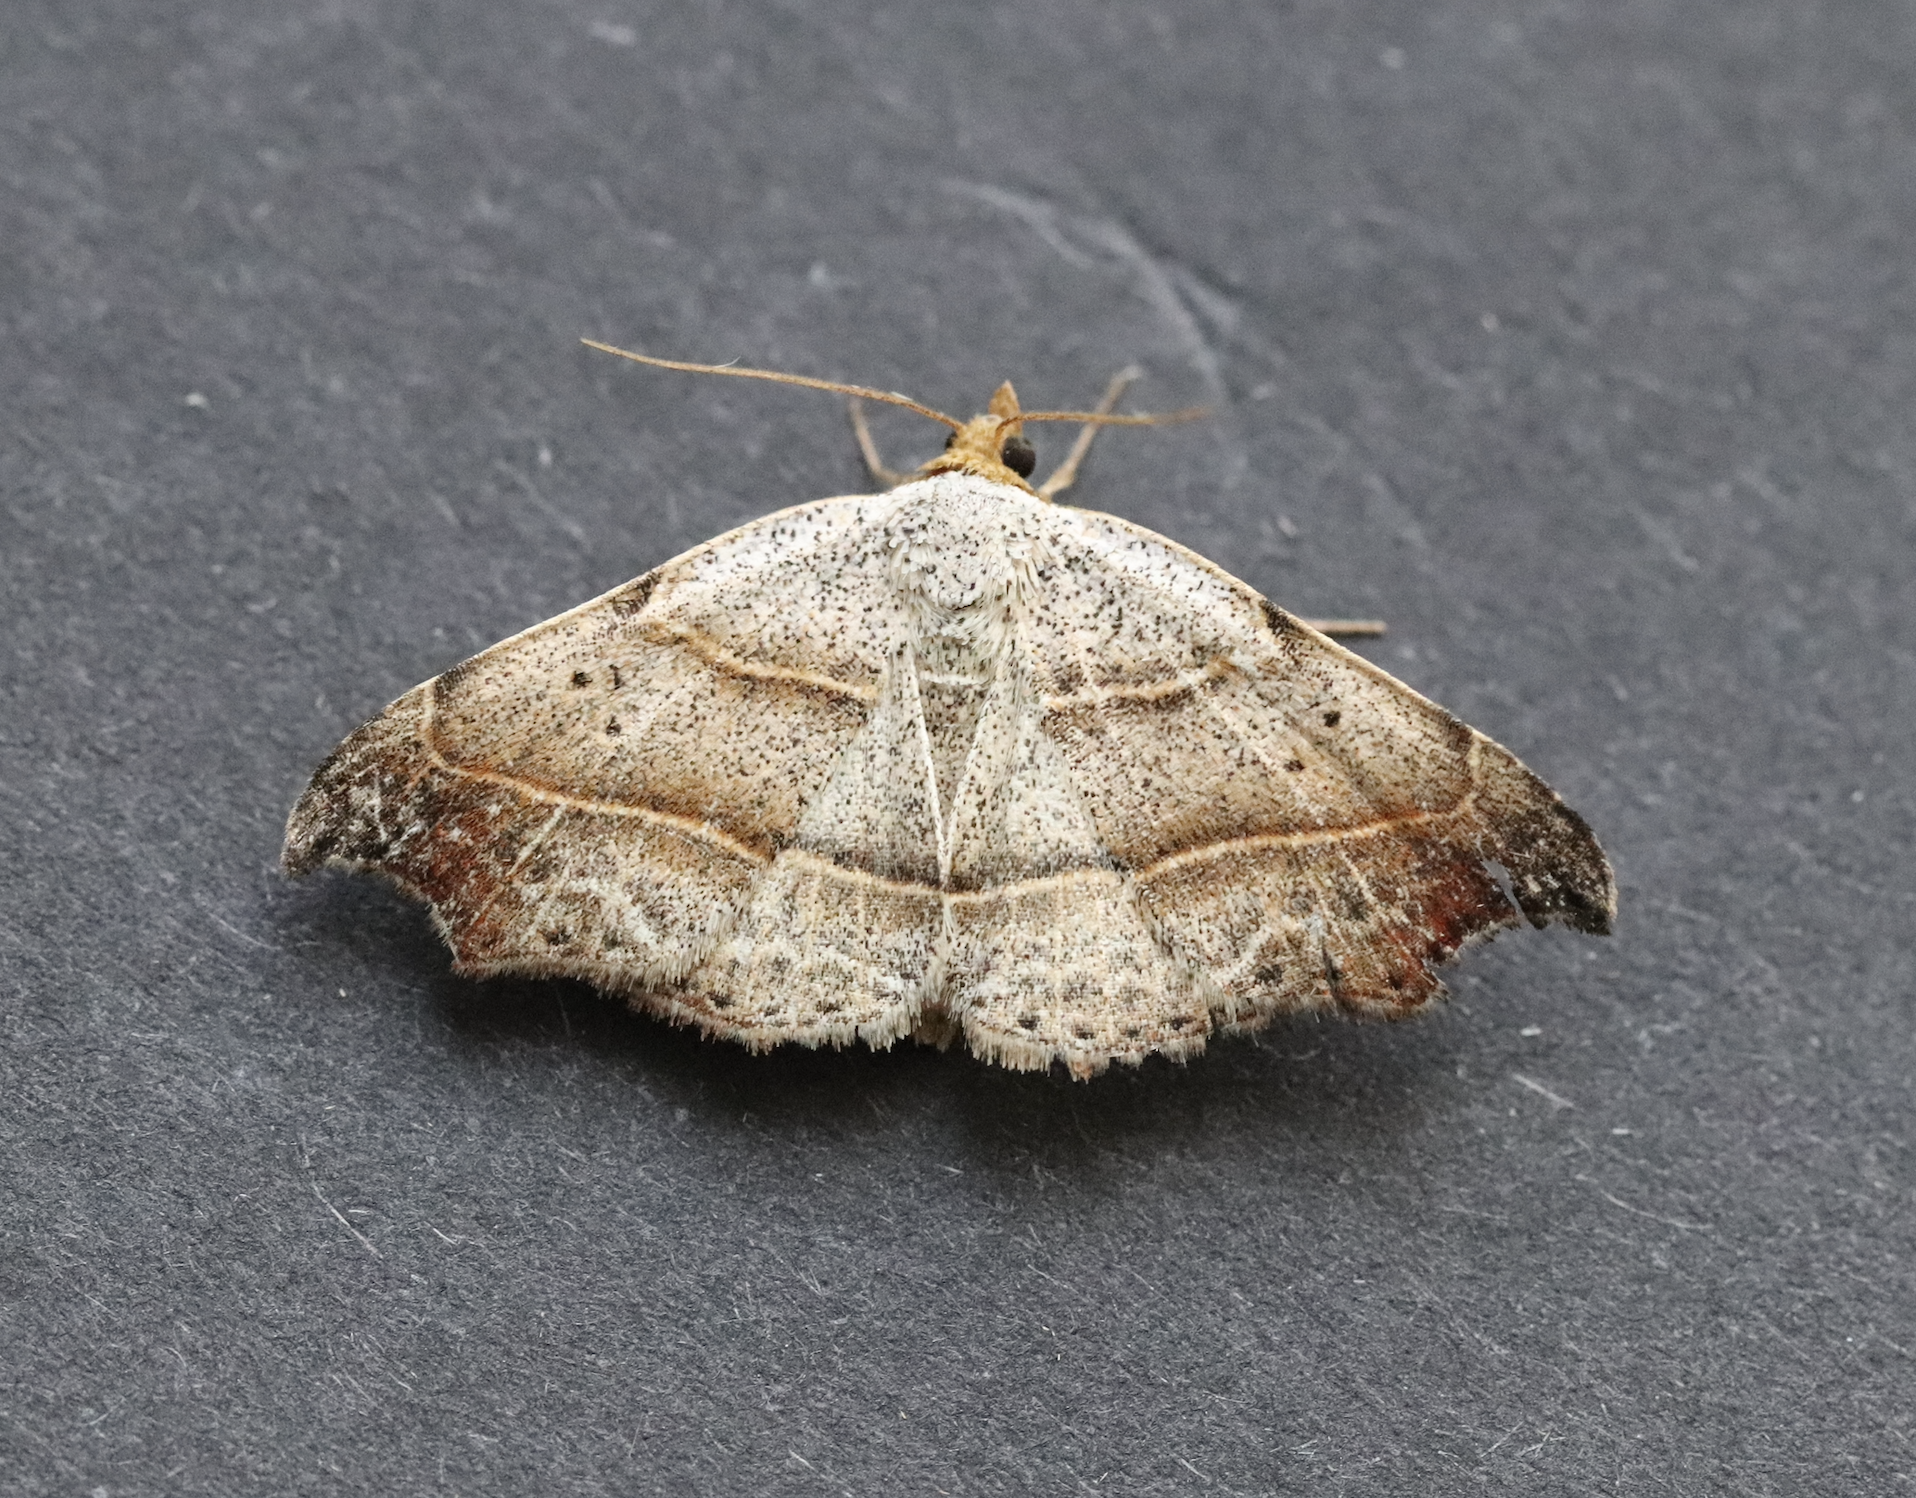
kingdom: Animalia
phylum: Arthropoda
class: Insecta
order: Lepidoptera
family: Erebidae
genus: Laspeyria
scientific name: Laspeyria flexula
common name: Beautiful hook-tip
